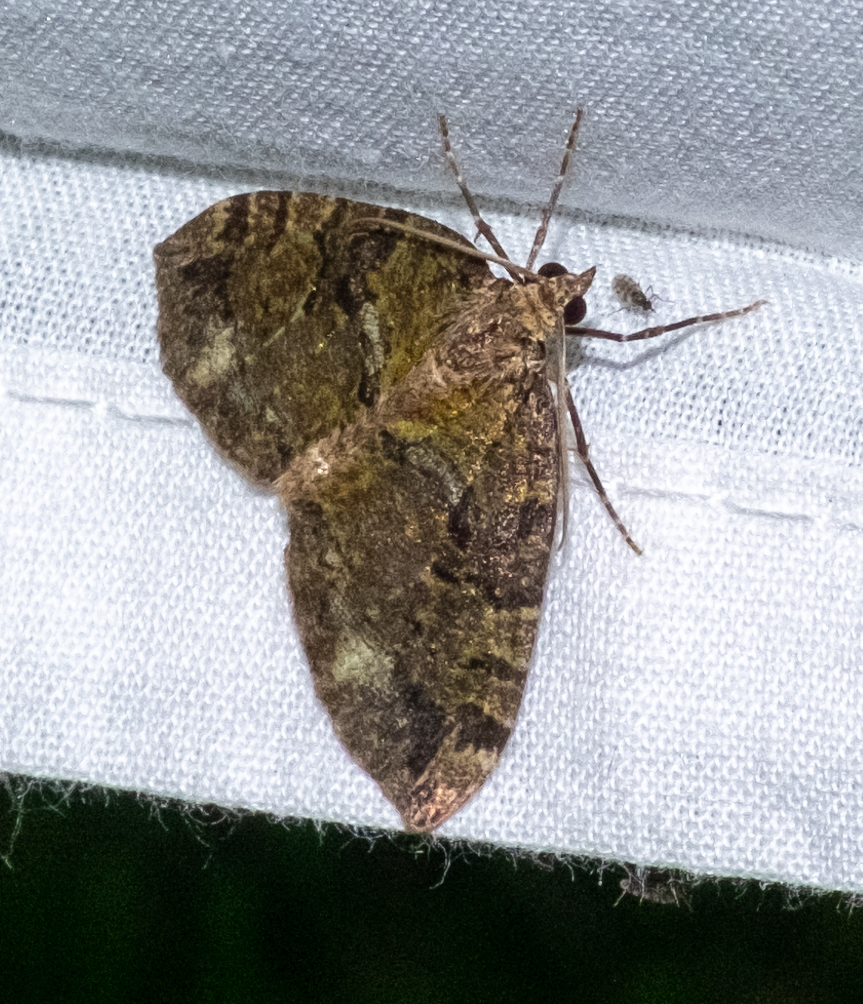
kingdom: Animalia
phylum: Arthropoda
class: Insecta
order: Lepidoptera
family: Geometridae
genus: Hydriomena
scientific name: Hydriomena furcata
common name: July highflyer
